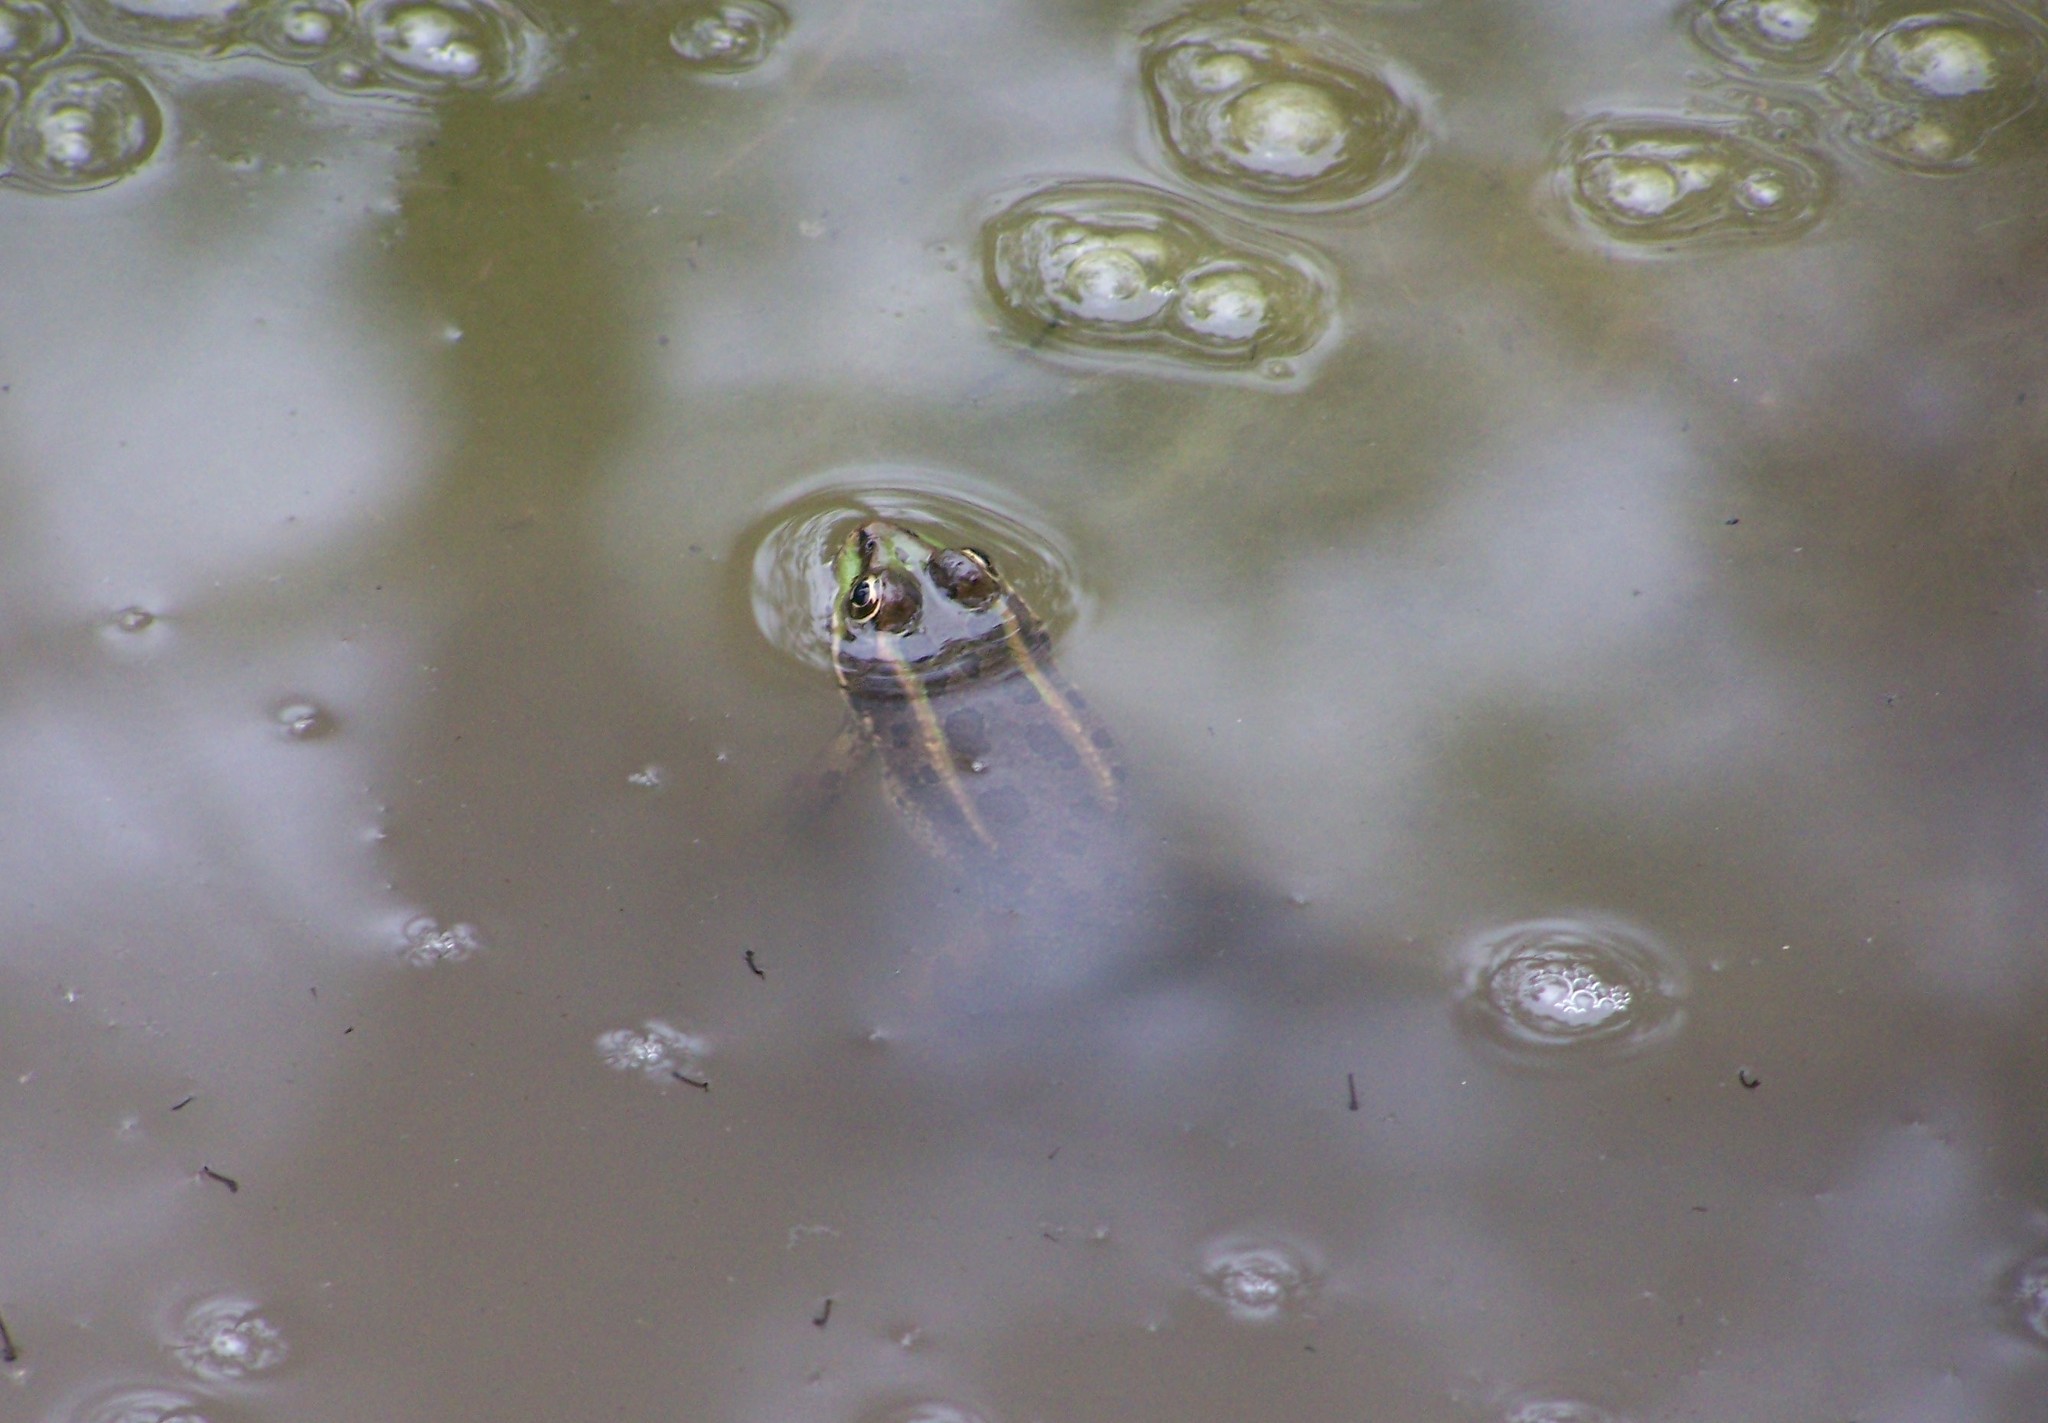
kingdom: Animalia
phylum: Chordata
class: Amphibia
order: Anura
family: Ranidae
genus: Lithobates
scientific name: Lithobates fisheri
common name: Vegas valley leopard frog
